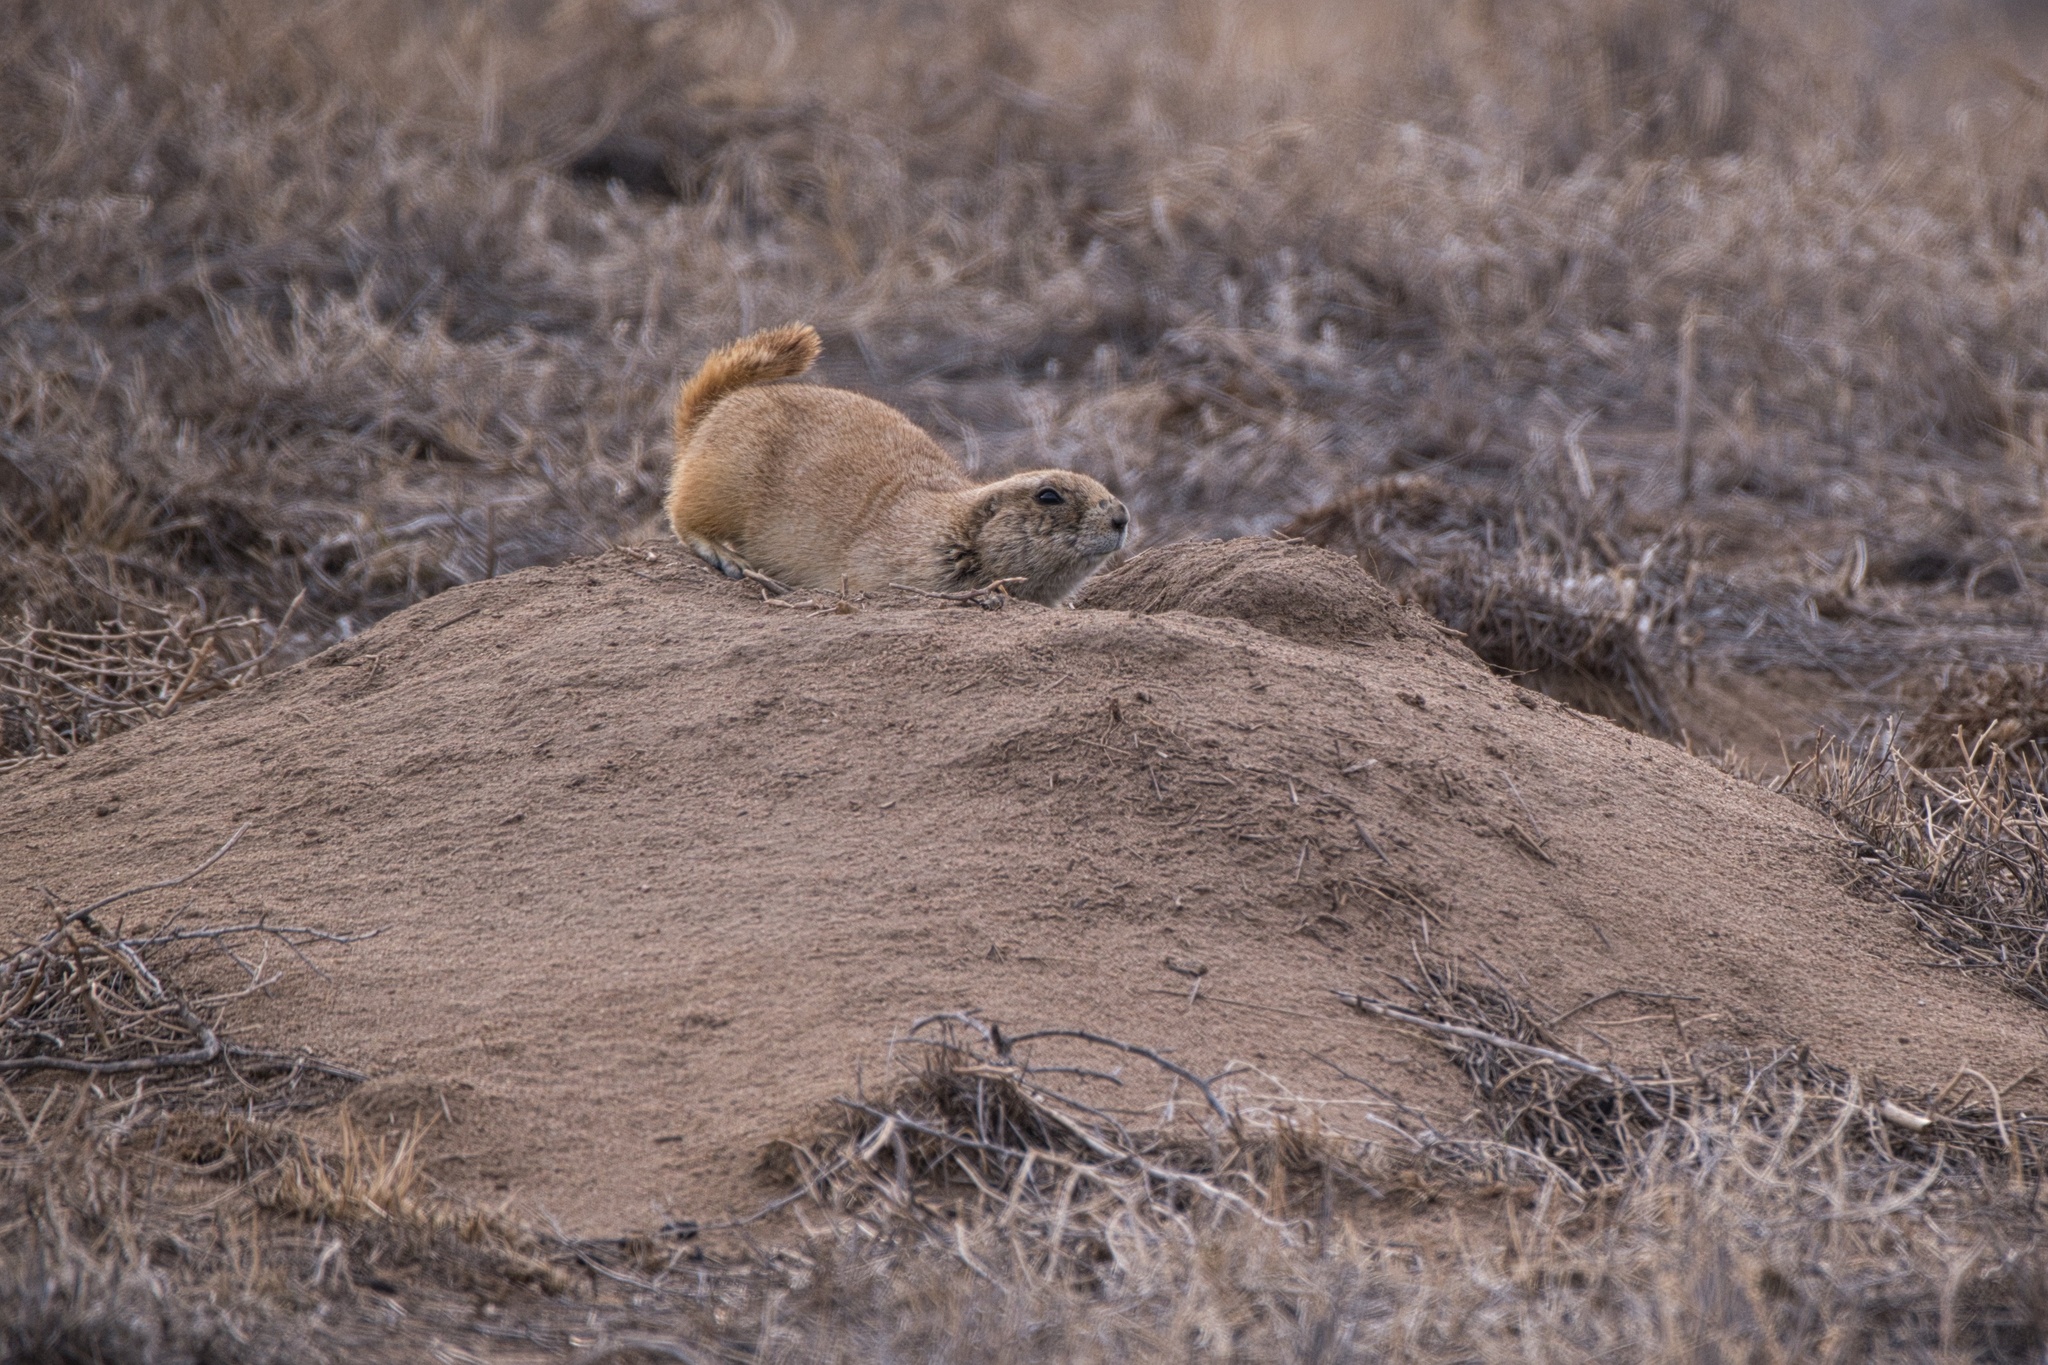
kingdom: Animalia
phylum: Chordata
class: Mammalia
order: Rodentia
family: Sciuridae
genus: Cynomys
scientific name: Cynomys ludovicianus
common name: Black-tailed prairie dog
